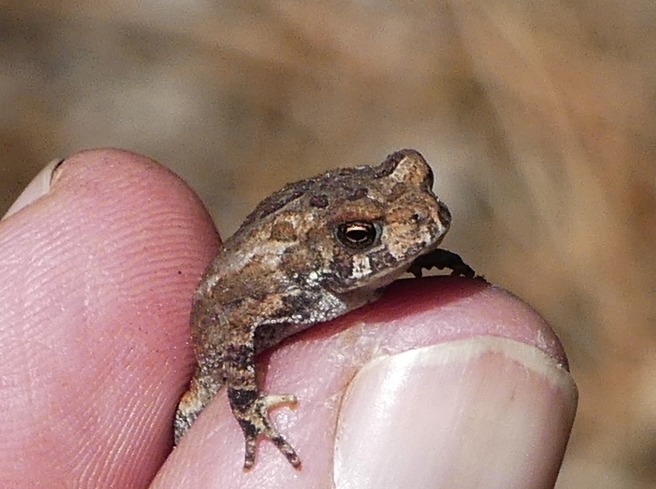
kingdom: Animalia
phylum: Chordata
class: Amphibia
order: Anura
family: Bufonidae
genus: Anaxyrus
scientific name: Anaxyrus americanus
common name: American toad
